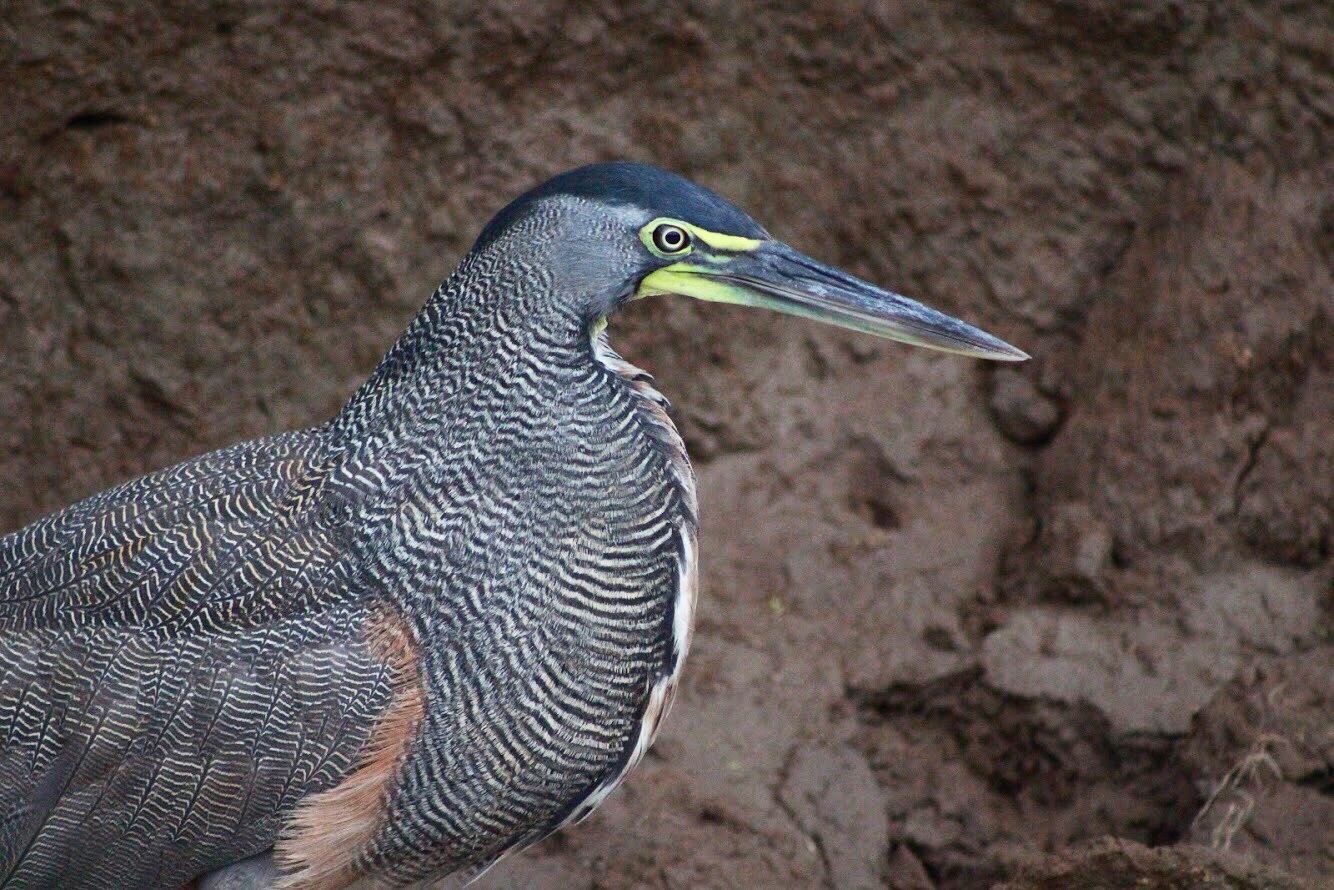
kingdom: Animalia
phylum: Chordata
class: Aves
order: Pelecaniformes
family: Ardeidae
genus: Tigrisoma
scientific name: Tigrisoma mexicanum
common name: Bare-throated tiger-heron
